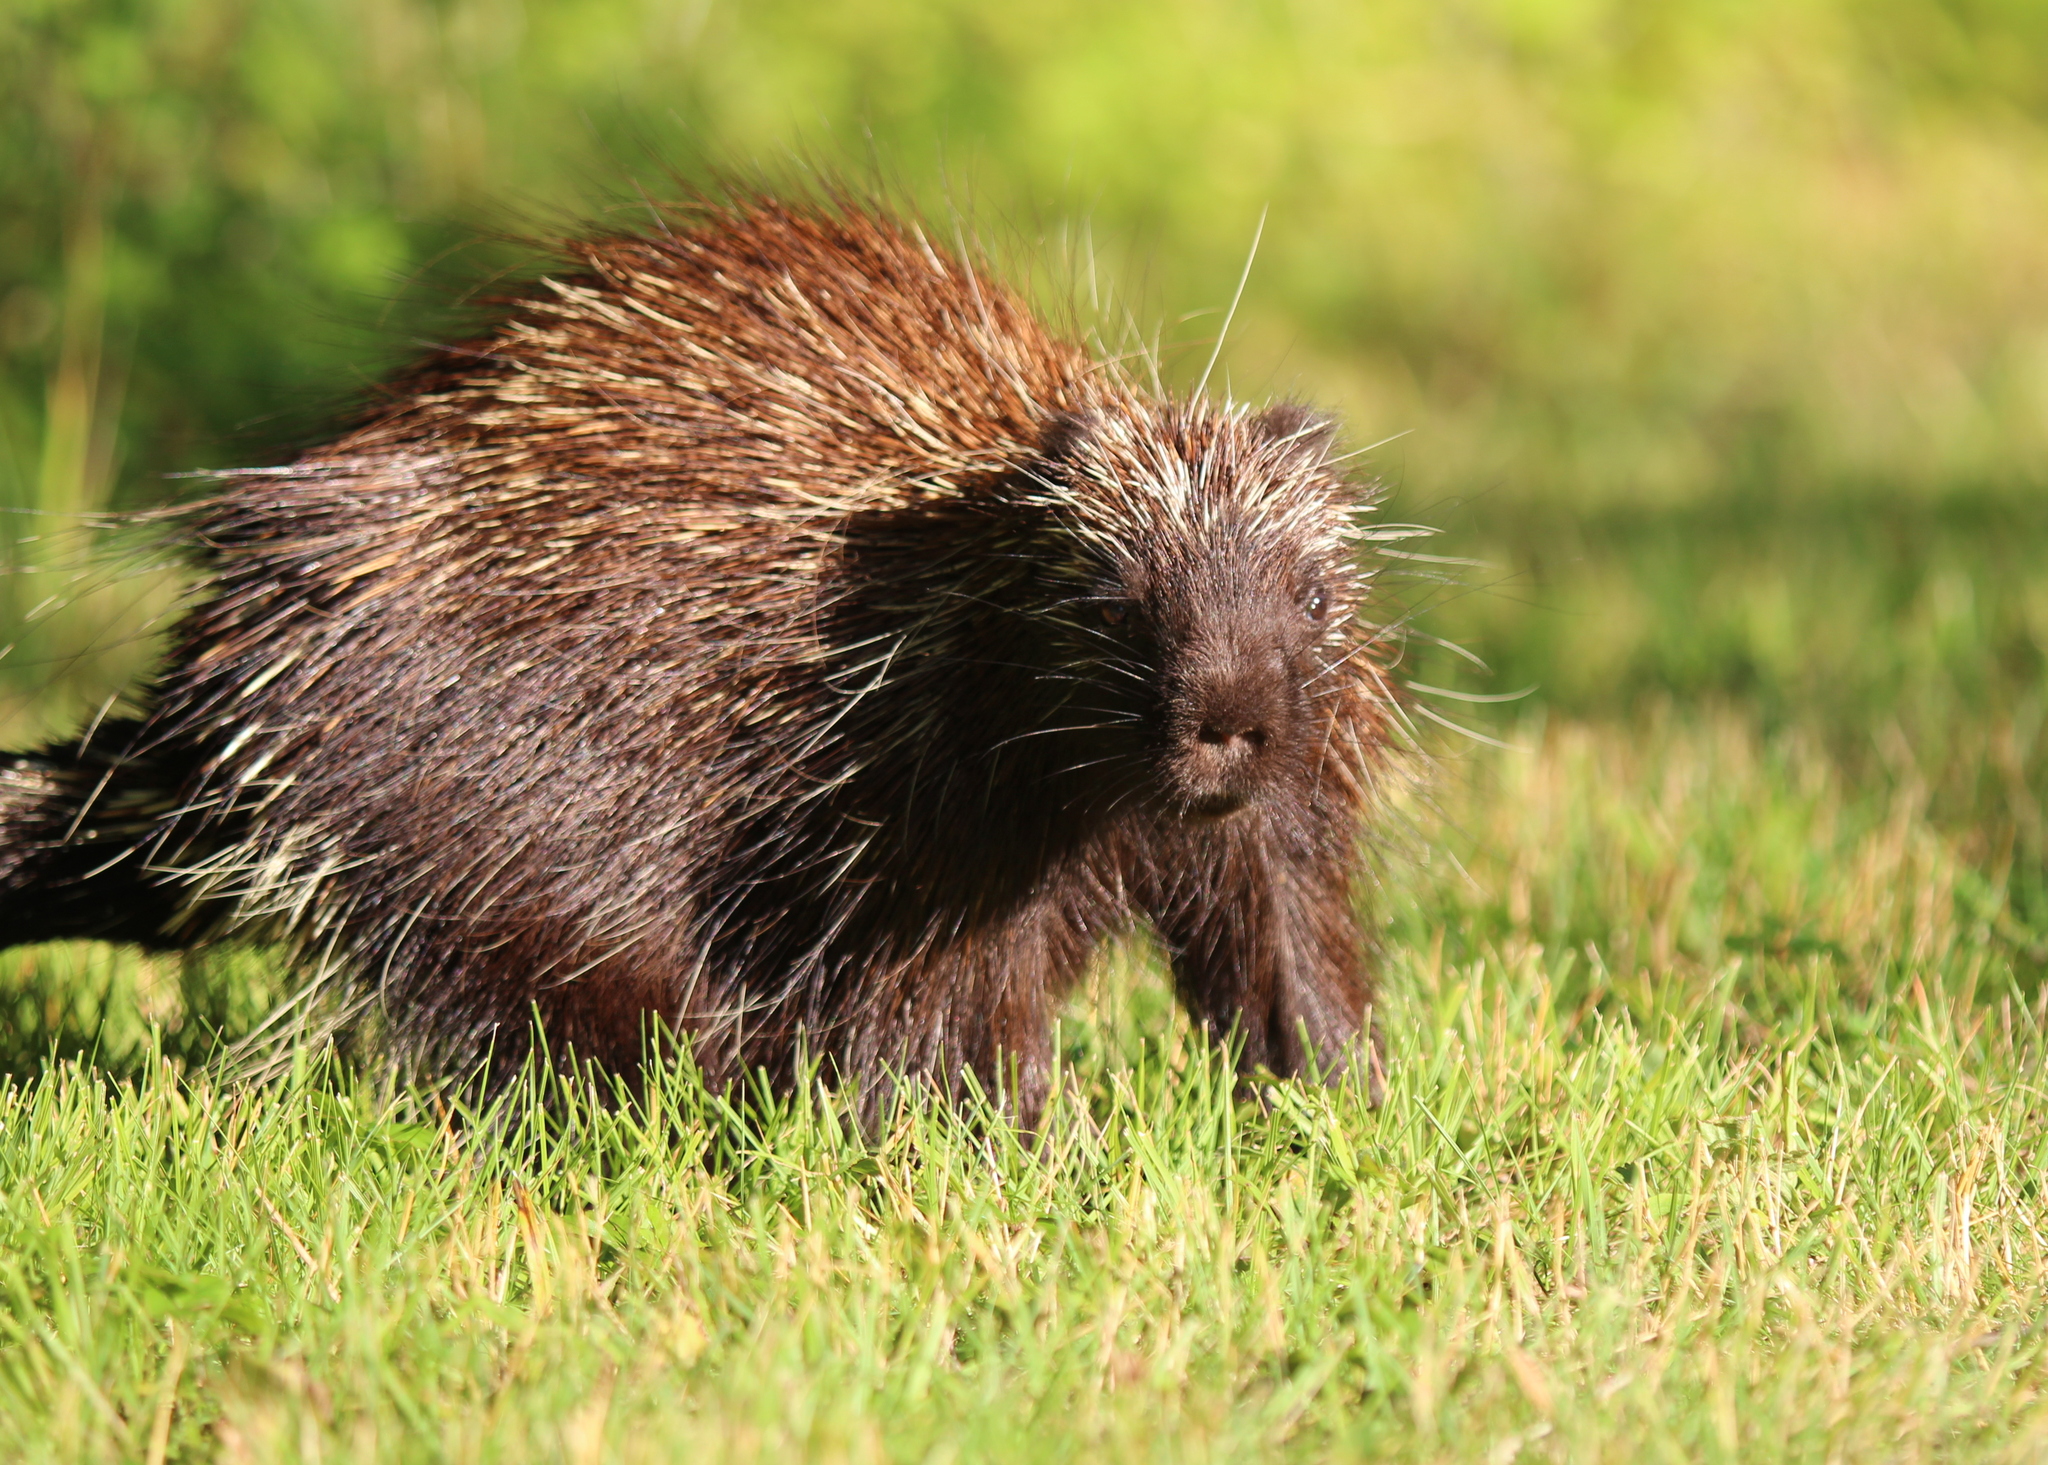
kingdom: Animalia
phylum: Chordata
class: Mammalia
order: Rodentia
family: Erethizontidae
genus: Erethizon
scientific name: Erethizon dorsatus
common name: North american porcupine
